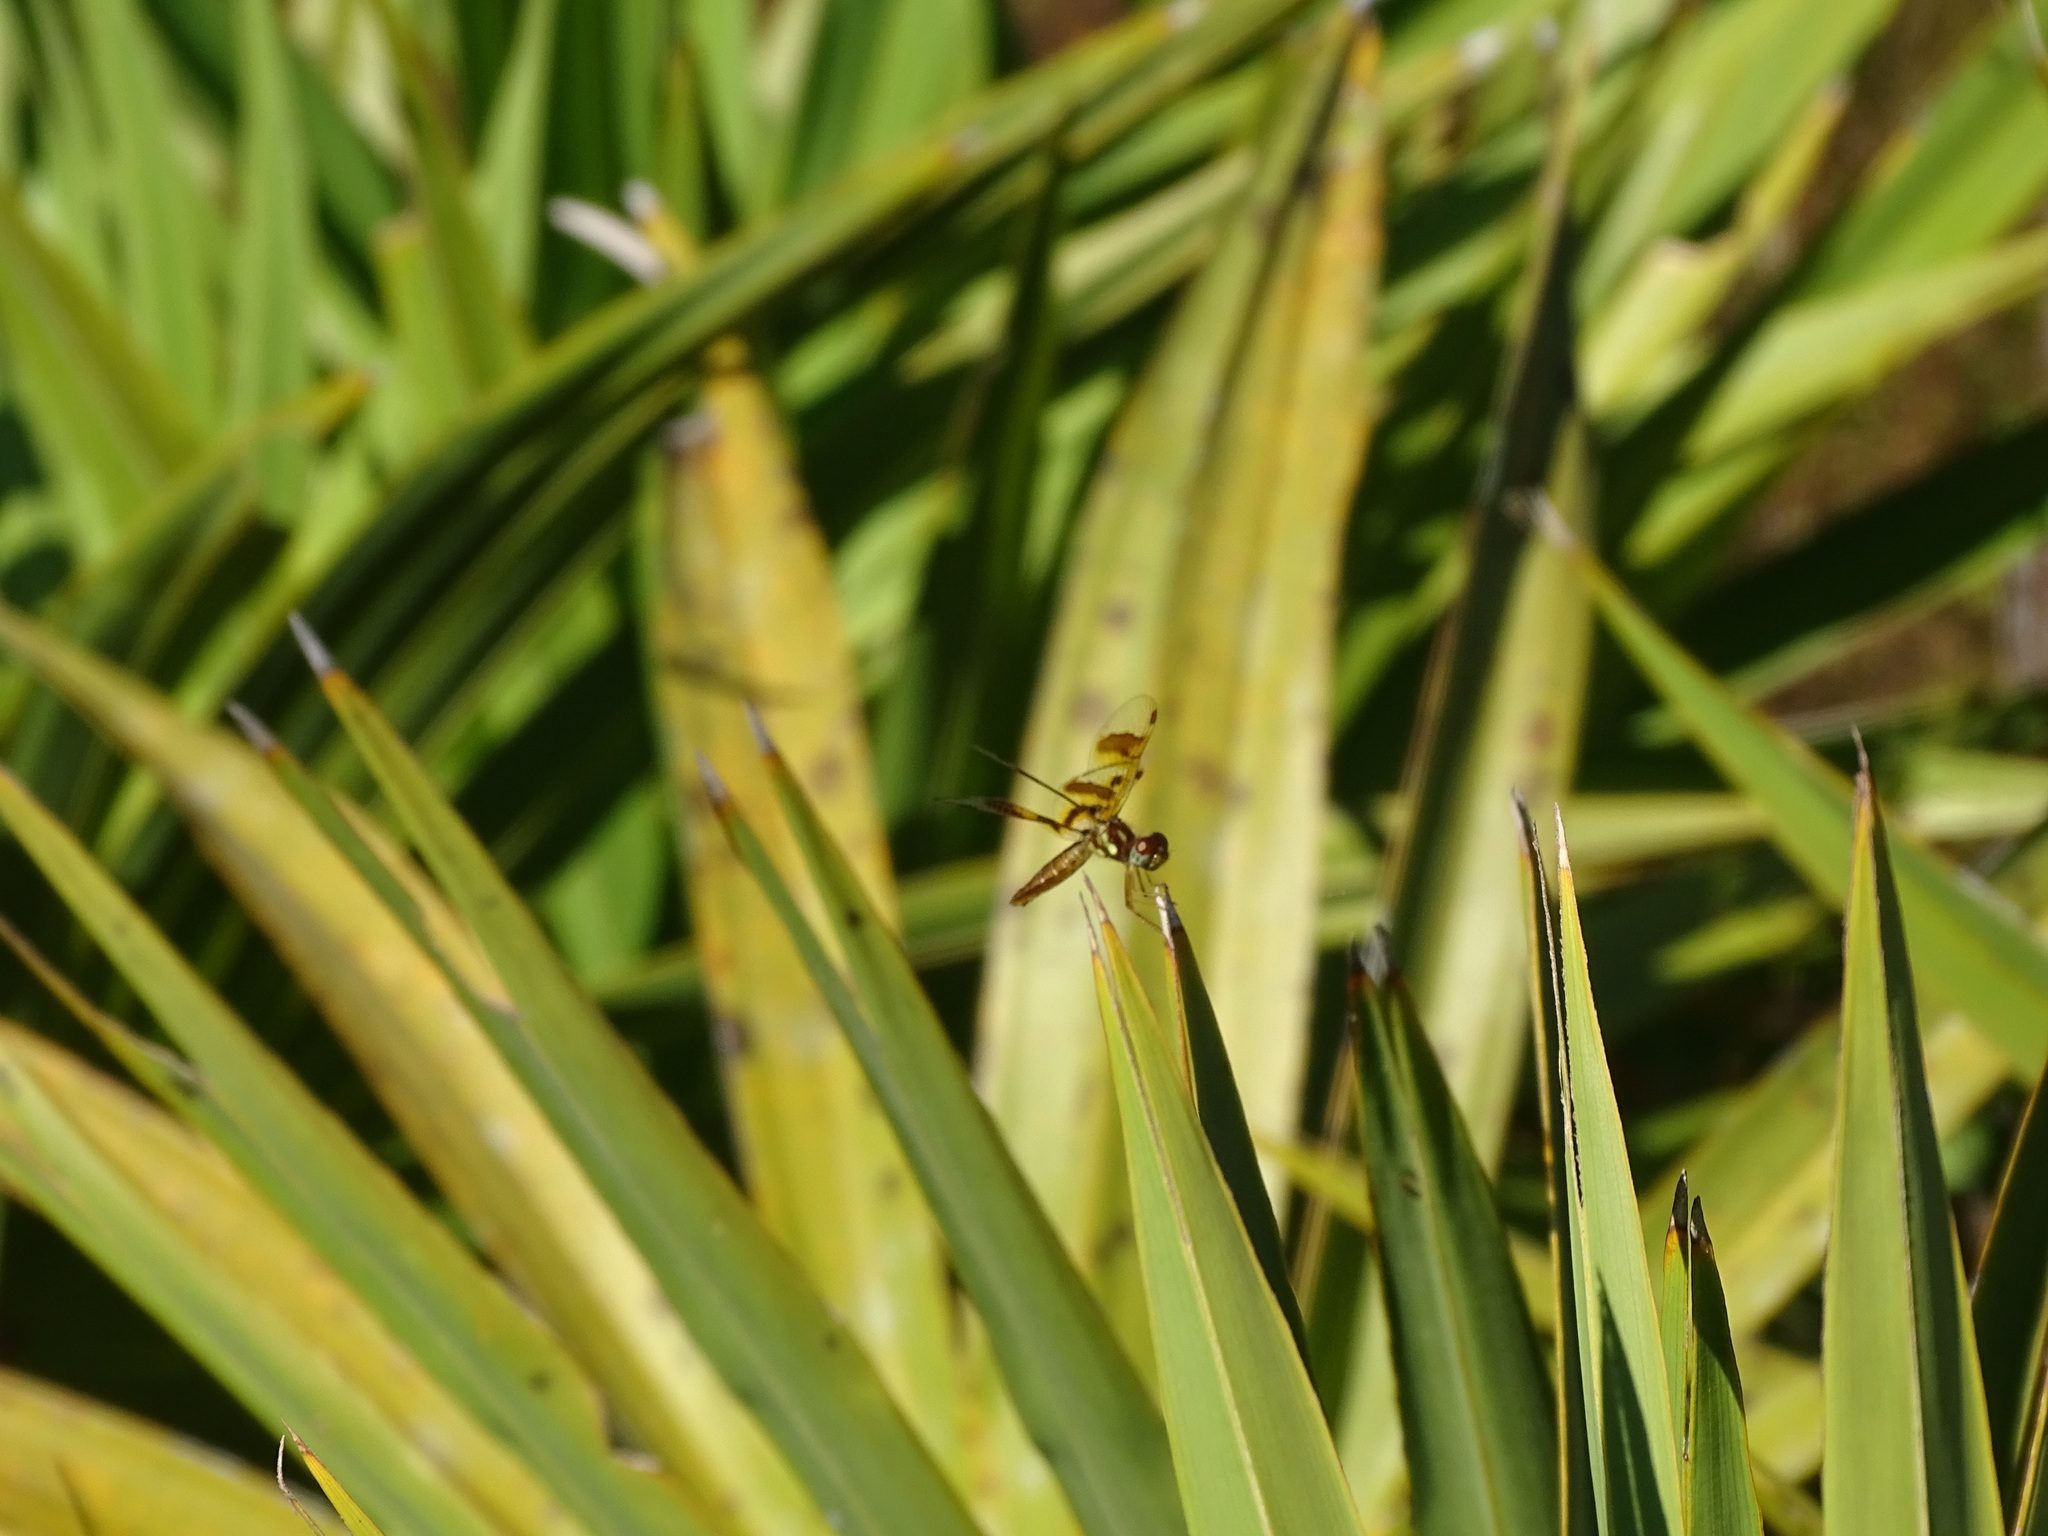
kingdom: Animalia
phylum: Arthropoda
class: Insecta
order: Odonata
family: Libellulidae
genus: Perithemis
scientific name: Perithemis tenera
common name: Eastern amberwing
